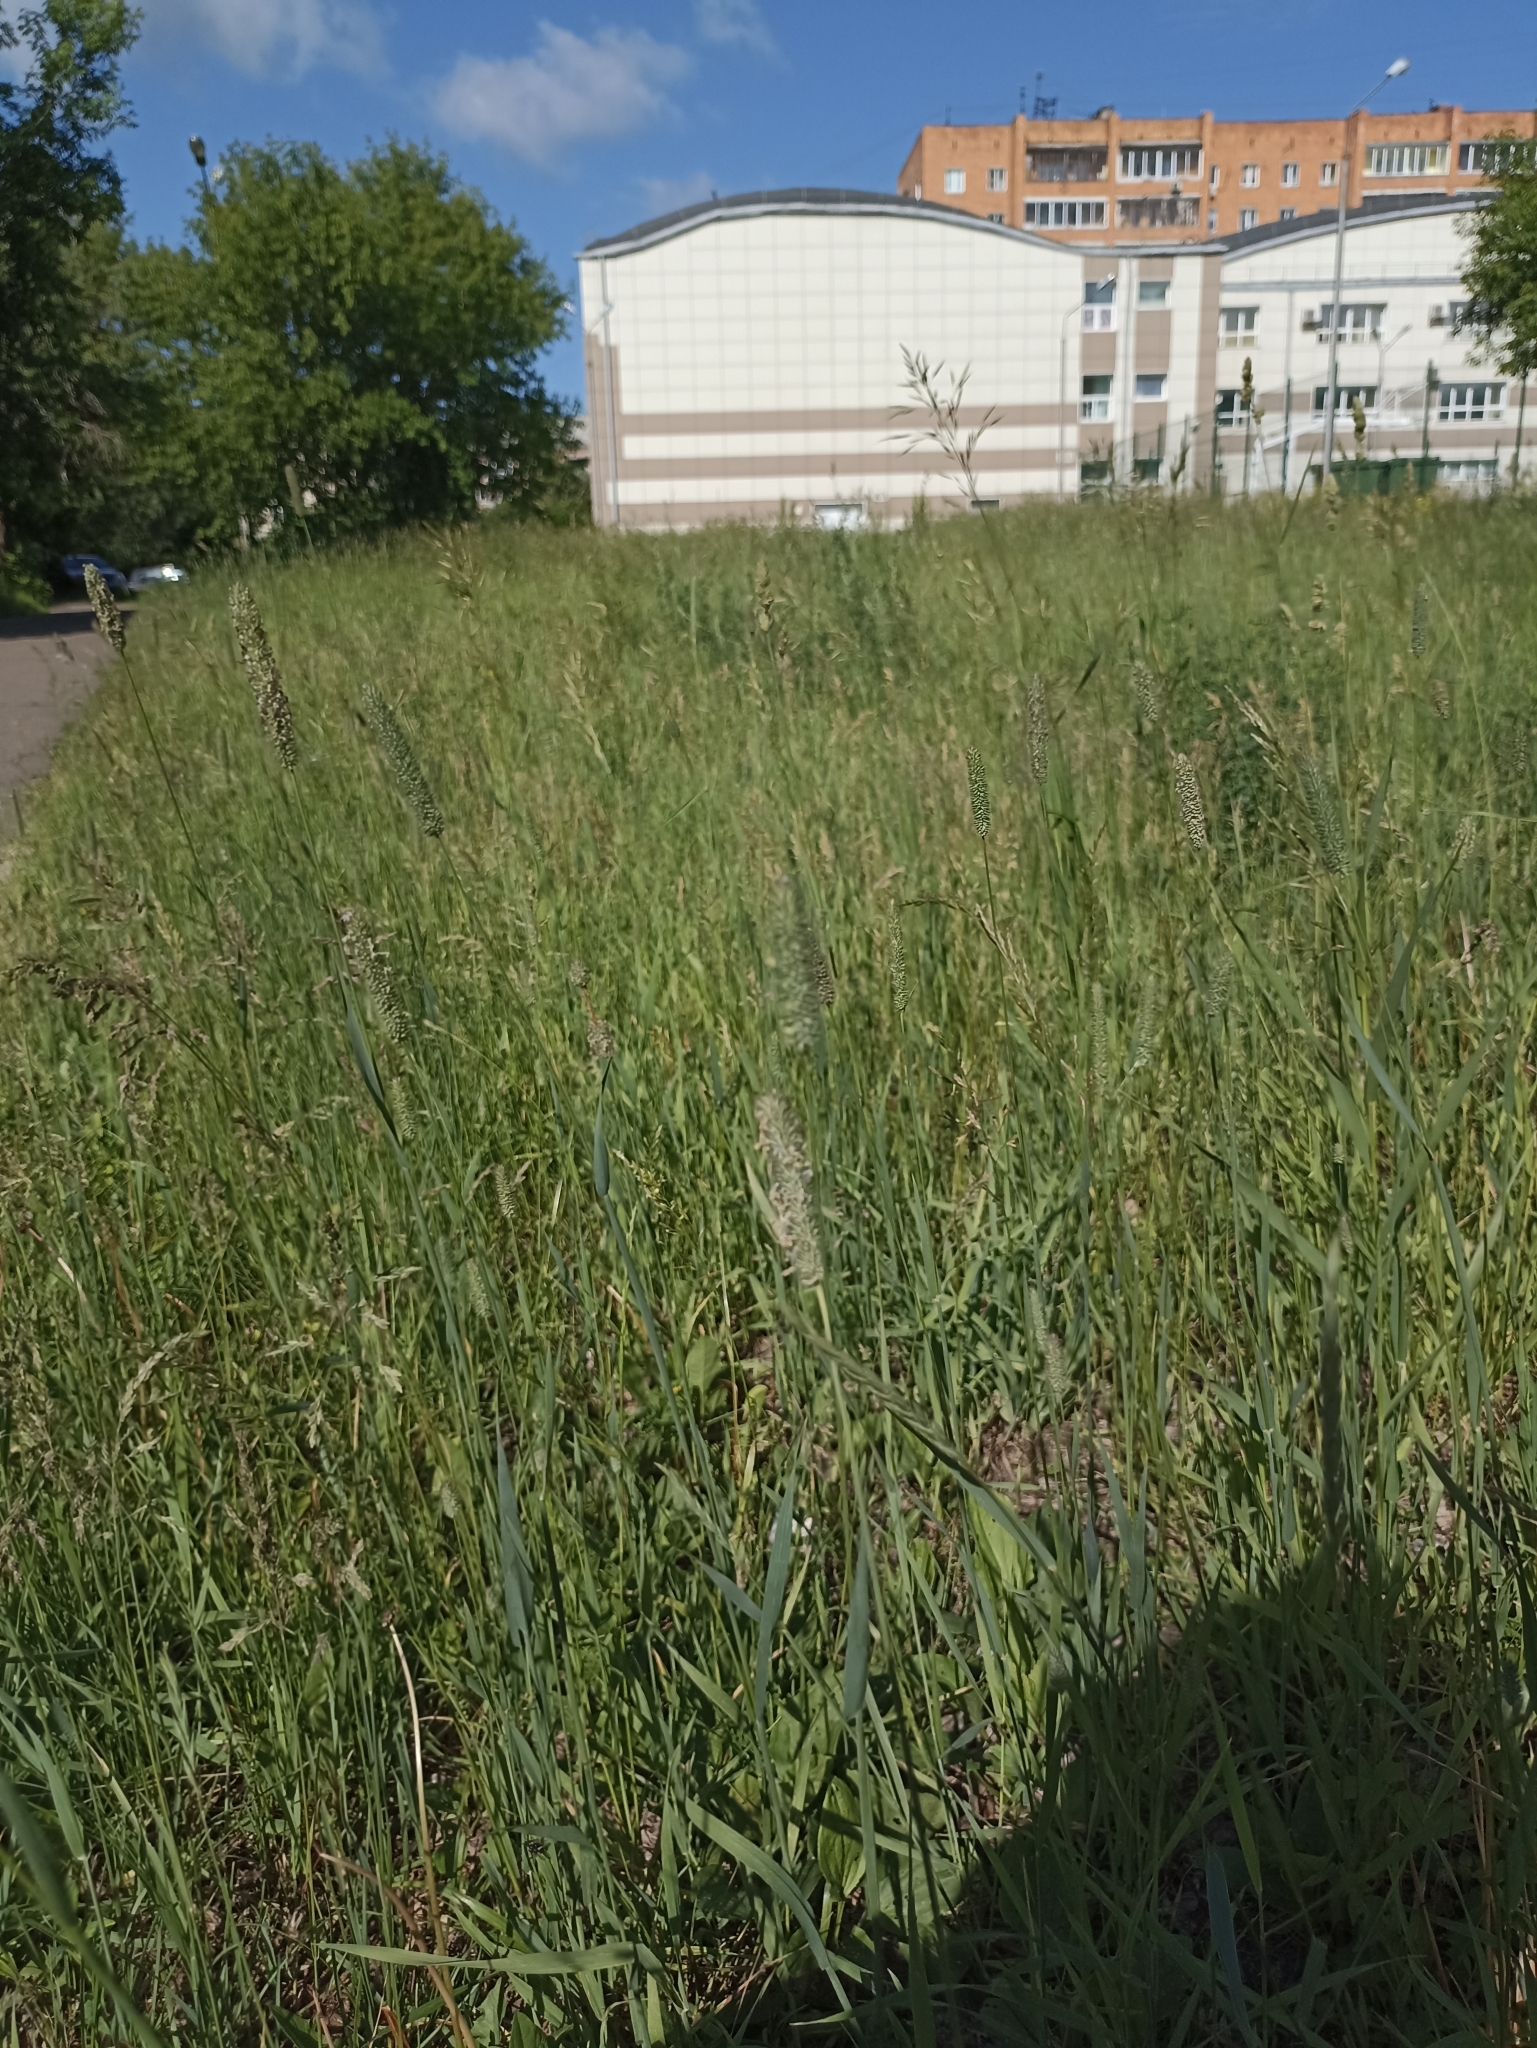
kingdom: Plantae
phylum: Tracheophyta
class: Liliopsida
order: Poales
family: Poaceae
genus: Phleum
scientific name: Phleum pratense
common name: Timothy grass
